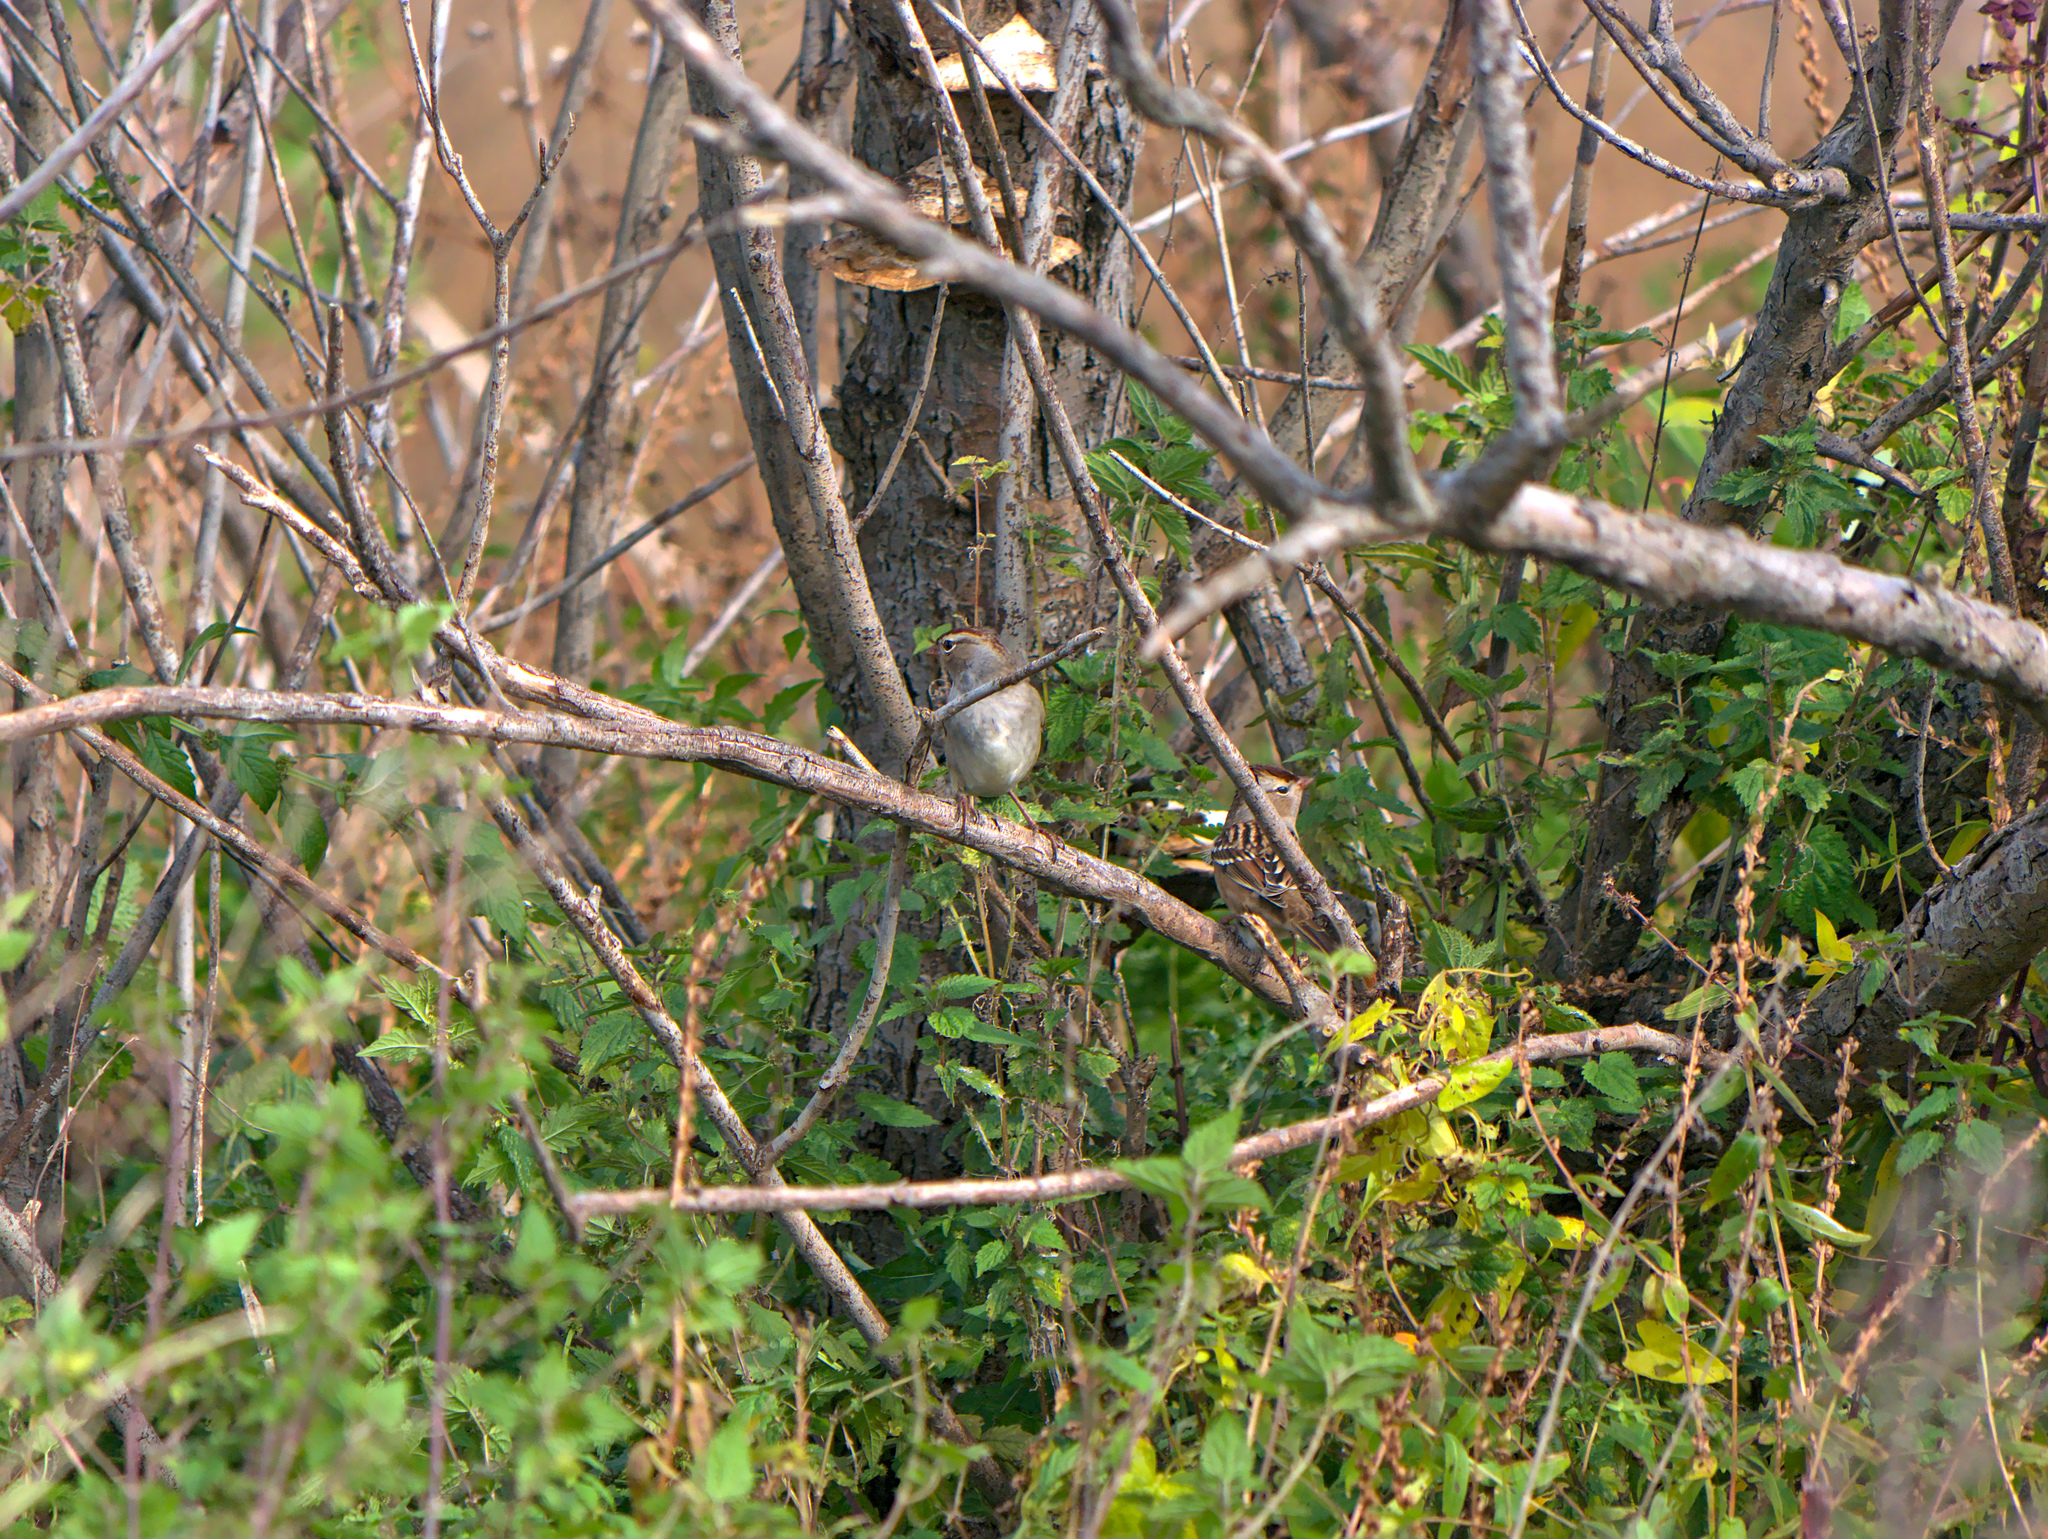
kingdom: Animalia
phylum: Chordata
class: Aves
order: Passeriformes
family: Passerellidae
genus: Zonotrichia
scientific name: Zonotrichia leucophrys
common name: White-crowned sparrow
